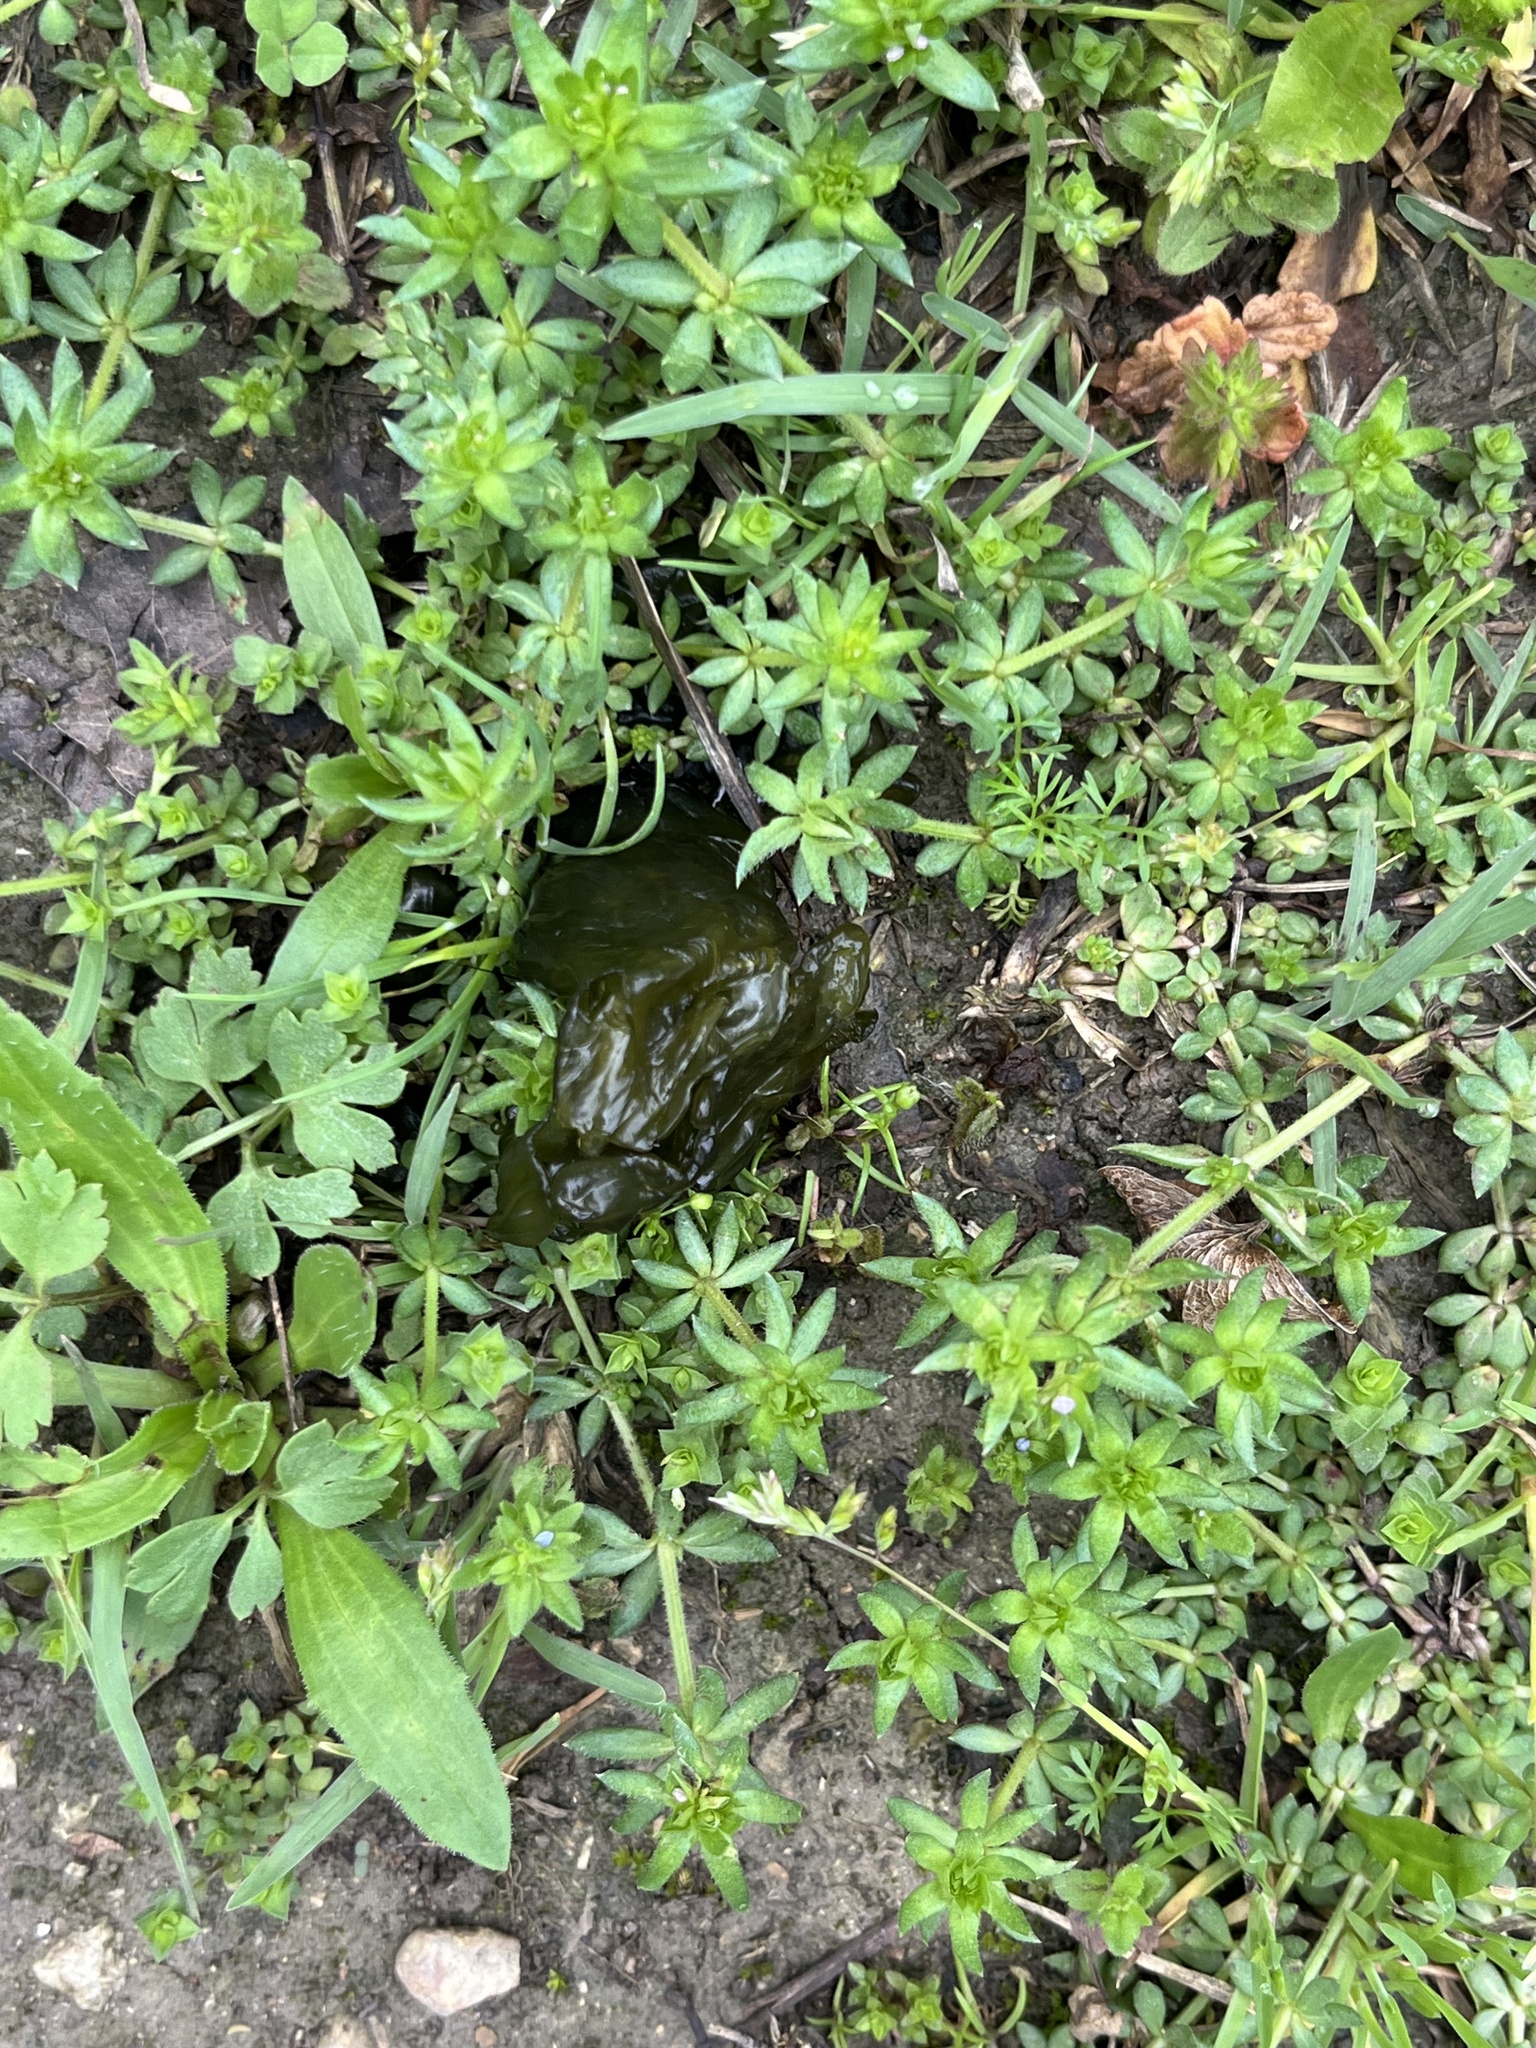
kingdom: Bacteria
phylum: Cyanobacteria
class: Cyanobacteriia
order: Cyanobacteriales
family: Nostocaceae
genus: Nostoc
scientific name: Nostoc commune
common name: Star jelly
